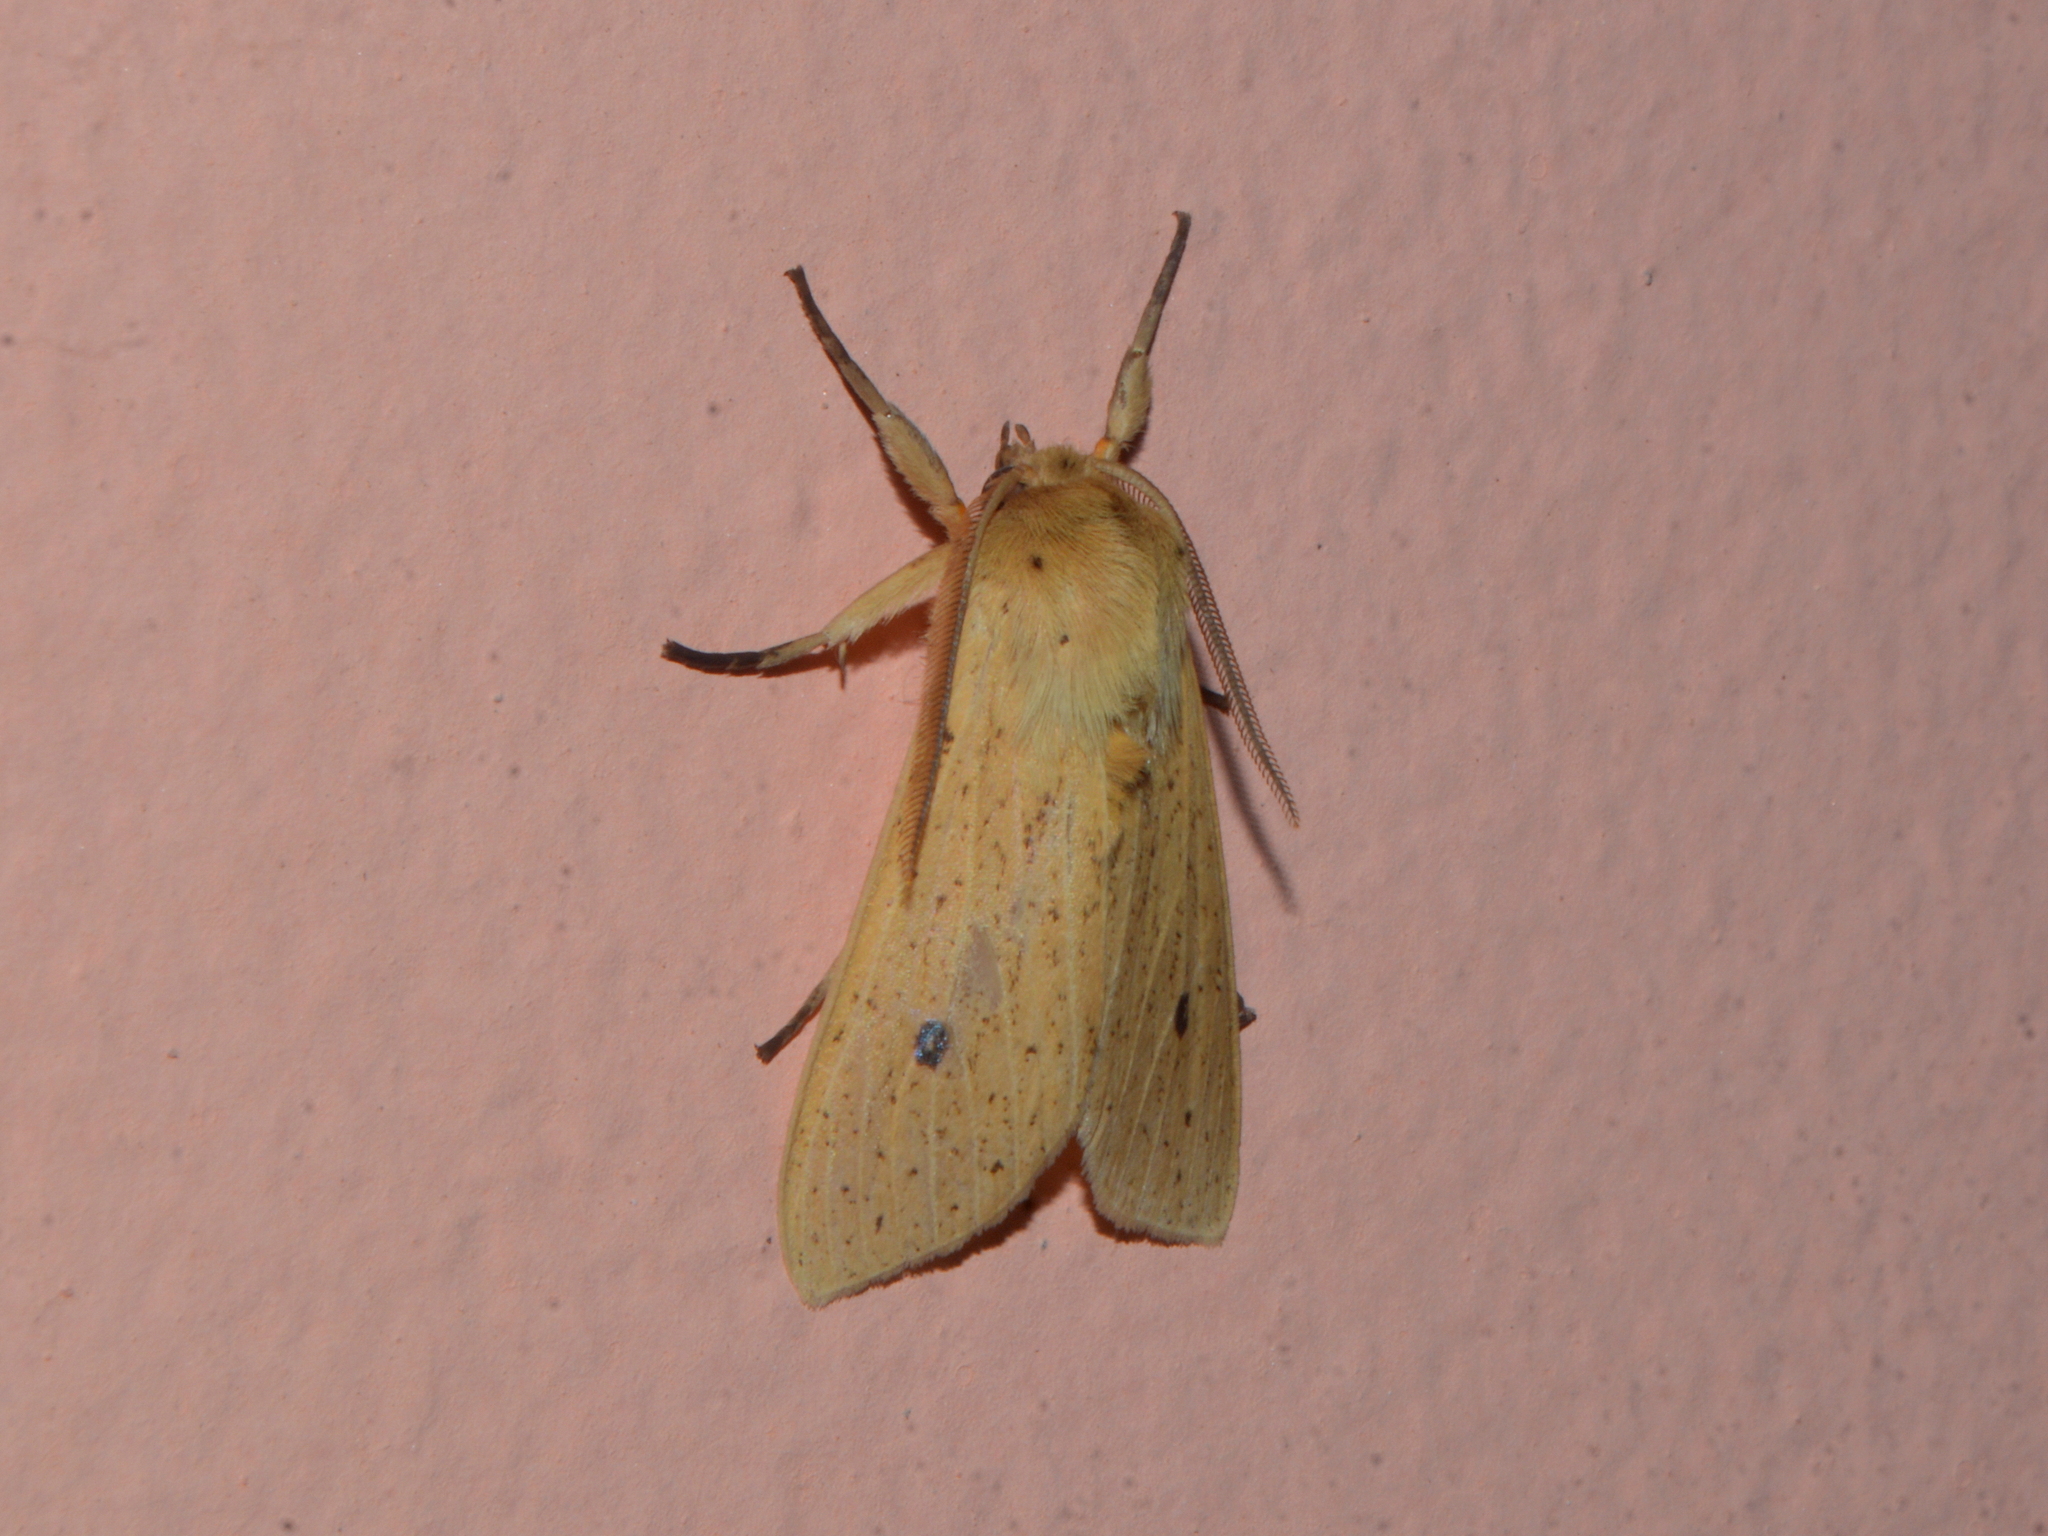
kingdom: Animalia
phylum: Arthropoda
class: Insecta
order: Lepidoptera
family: Erebidae
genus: Leucanopsis
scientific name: Leucanopsis leucanina
